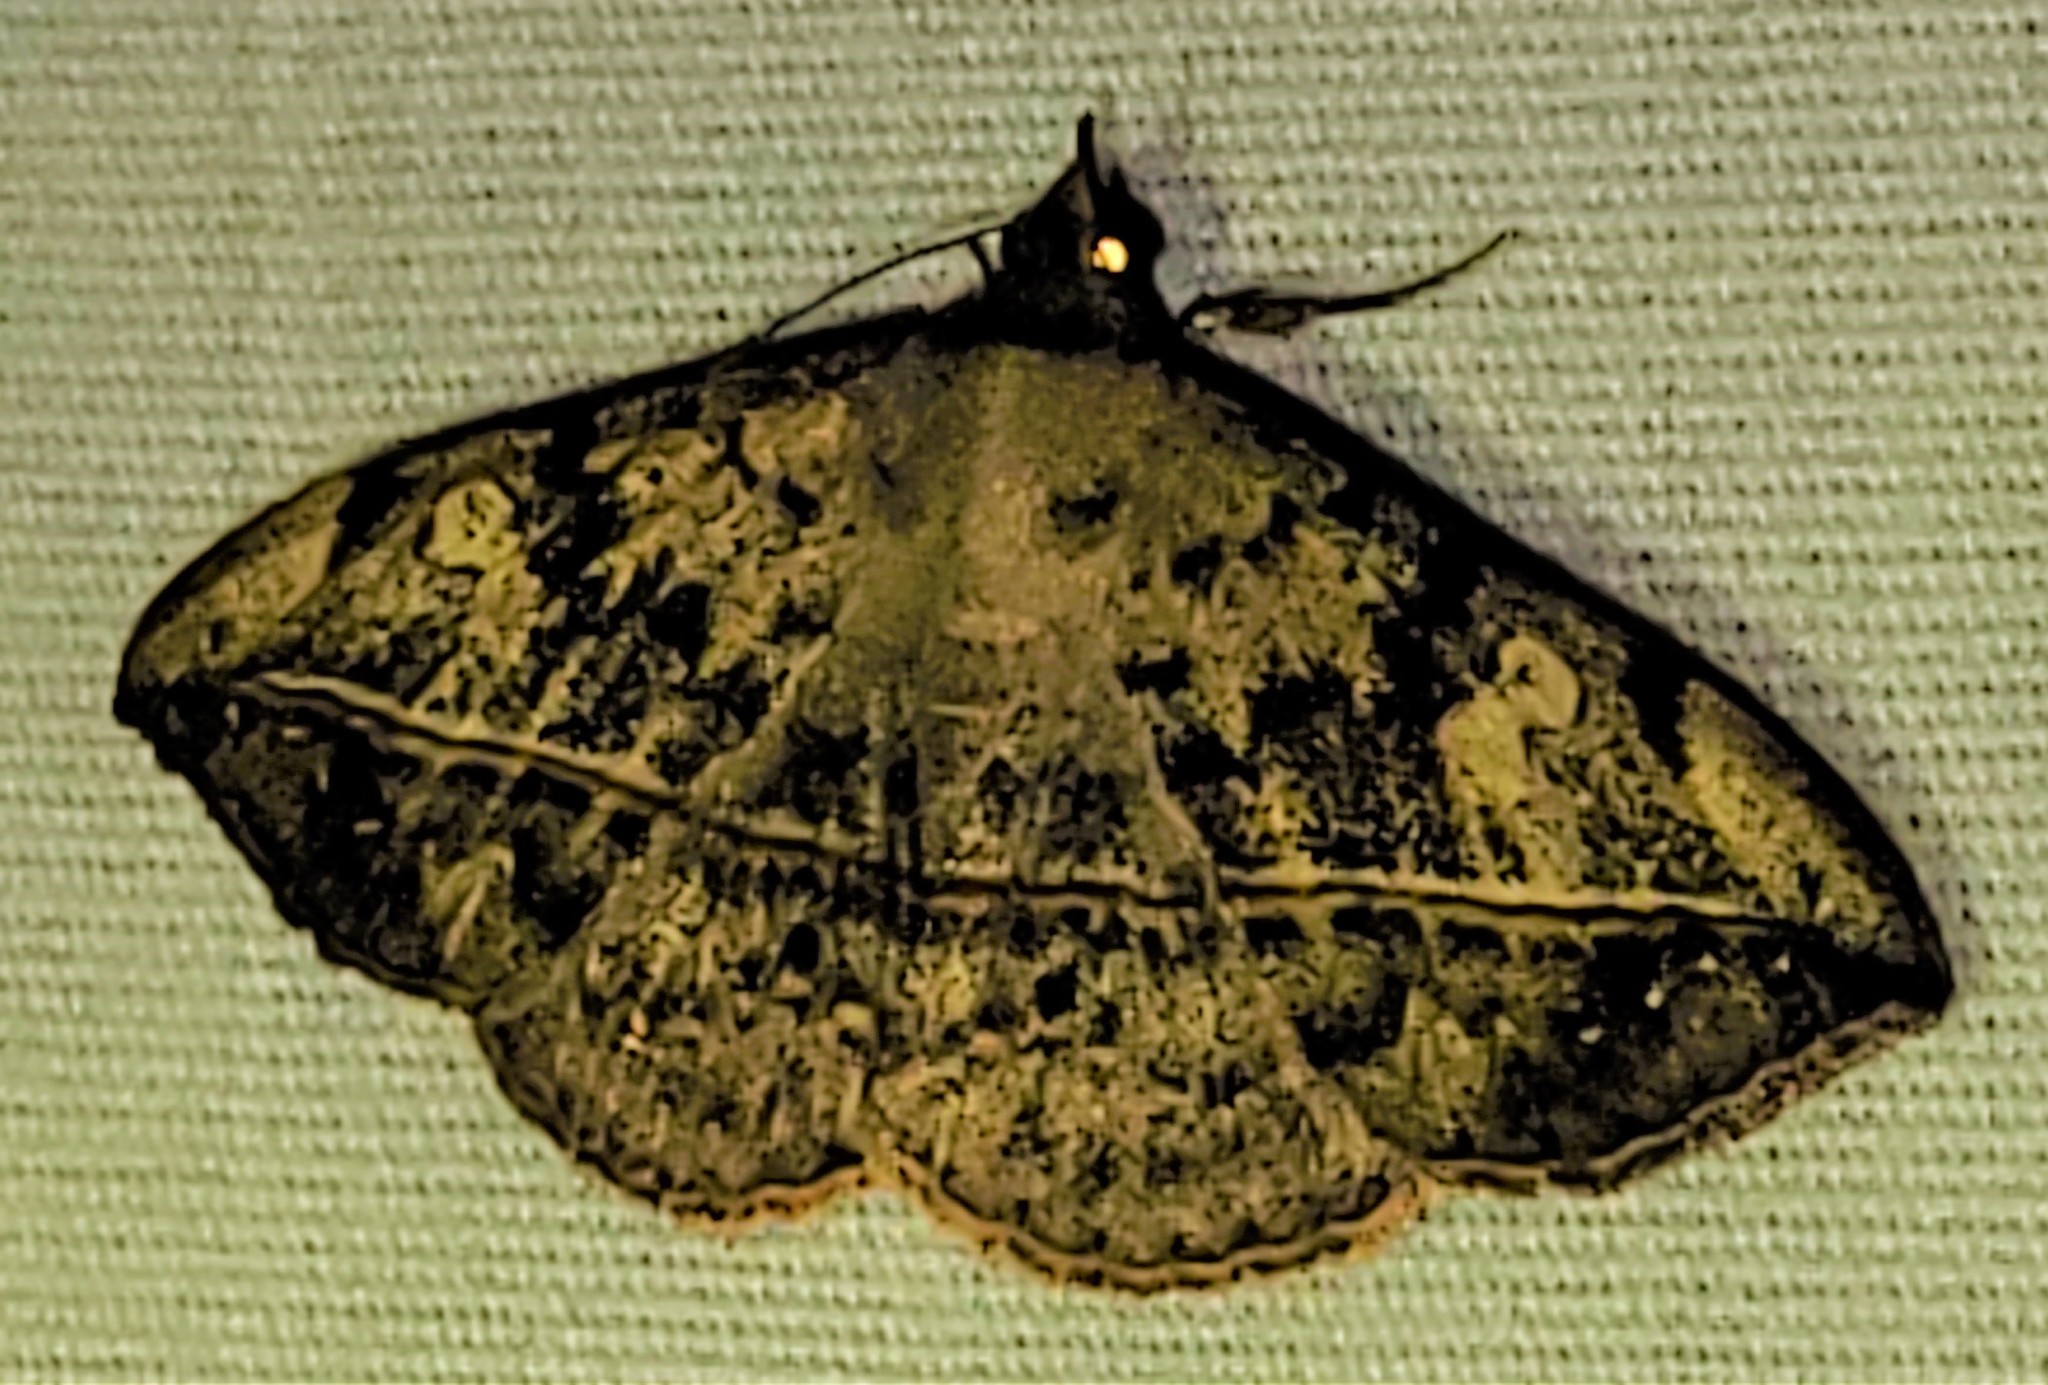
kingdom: Animalia
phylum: Arthropoda
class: Insecta
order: Lepidoptera
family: Erebidae
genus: Anticarsia
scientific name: Anticarsia gemmatalis
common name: Cutworm moth
